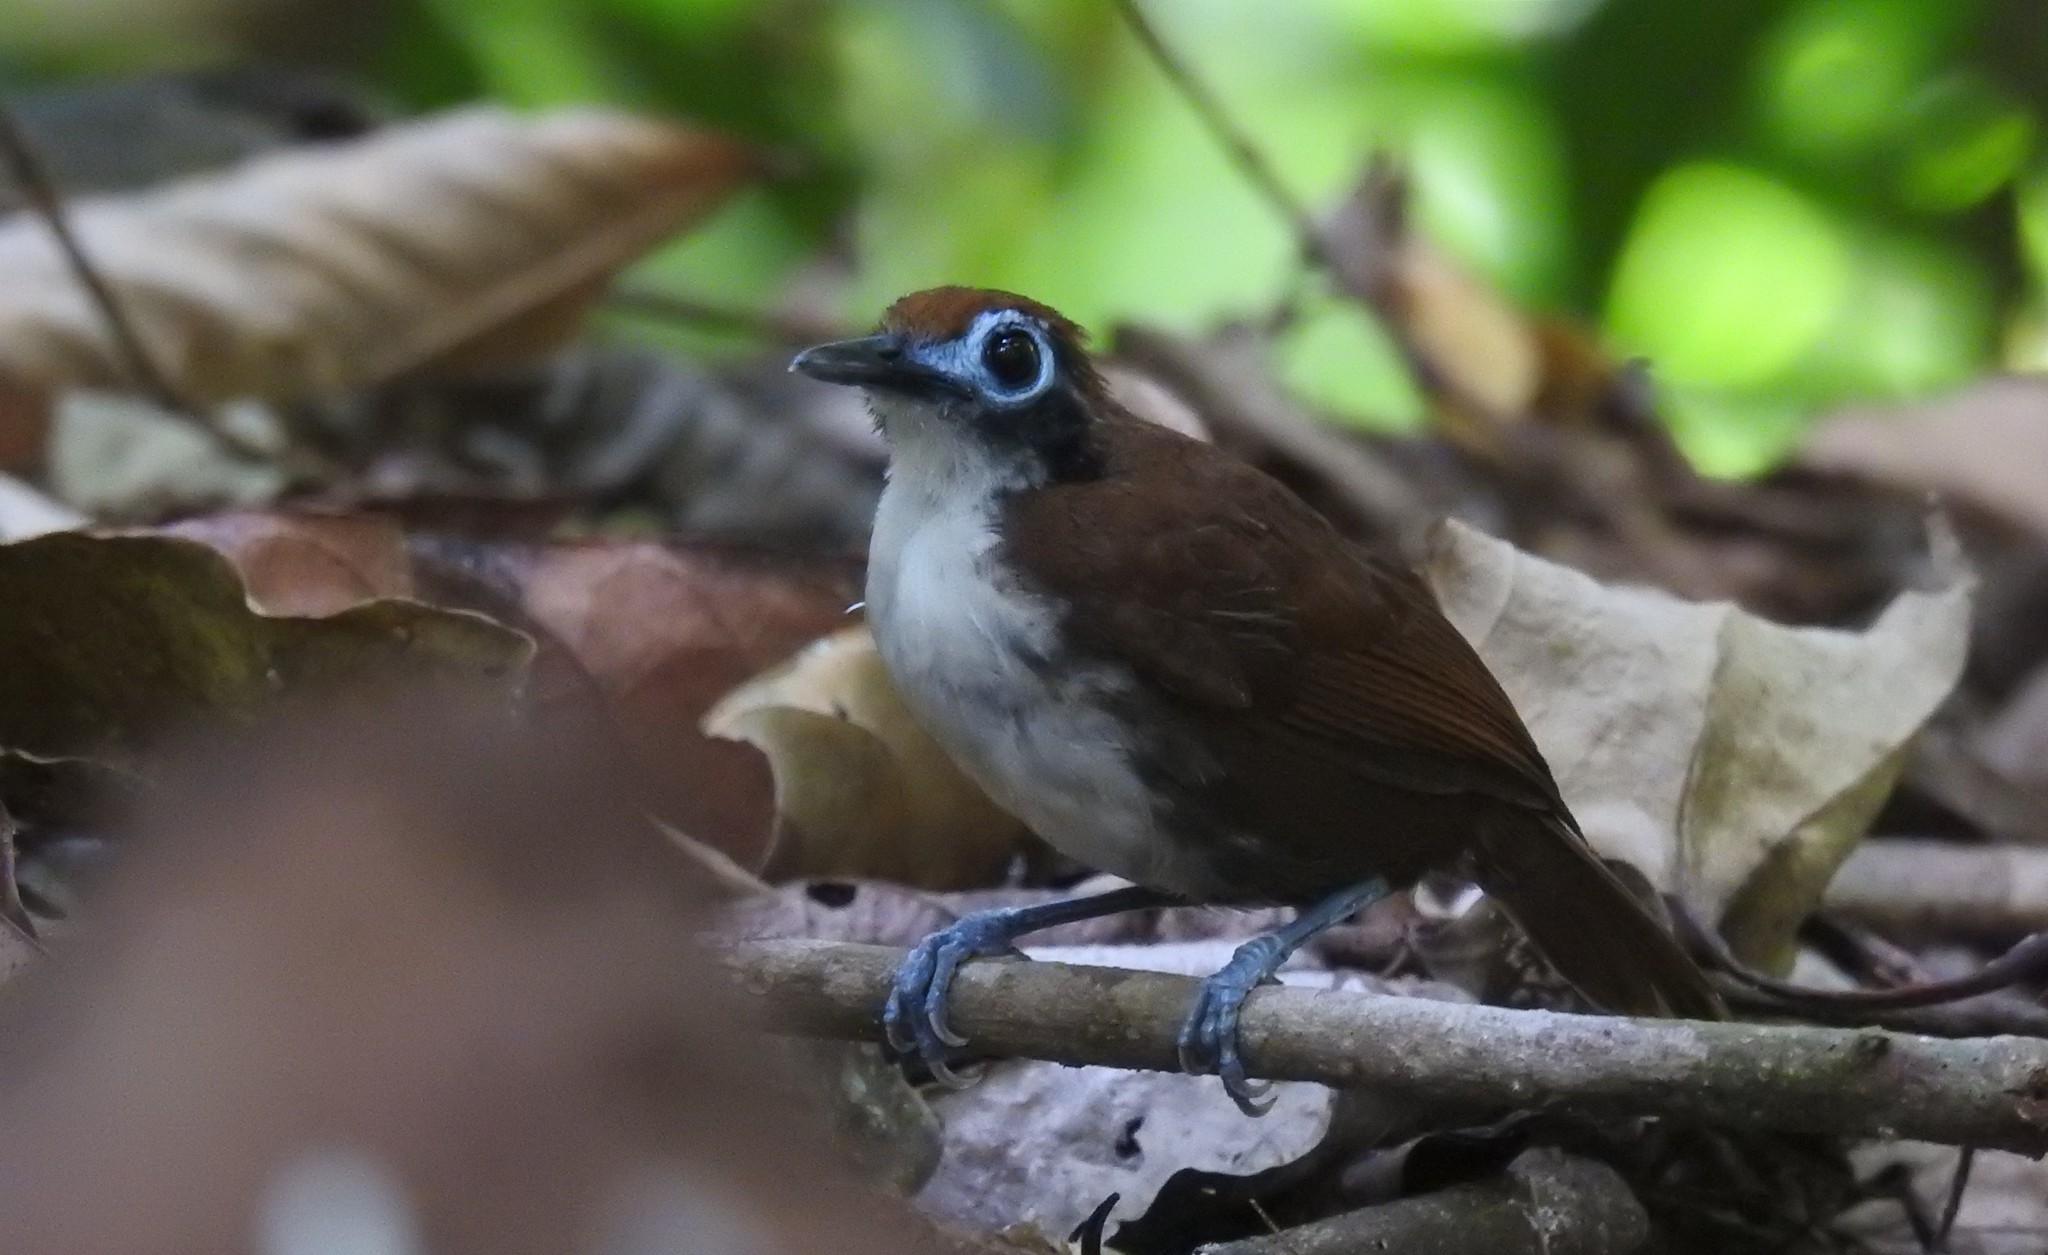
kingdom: Animalia
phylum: Chordata
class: Aves
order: Passeriformes
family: Thamnophilidae
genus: Gymnopithys
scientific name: Gymnopithys leucaspis
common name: White-cheeked antbird
